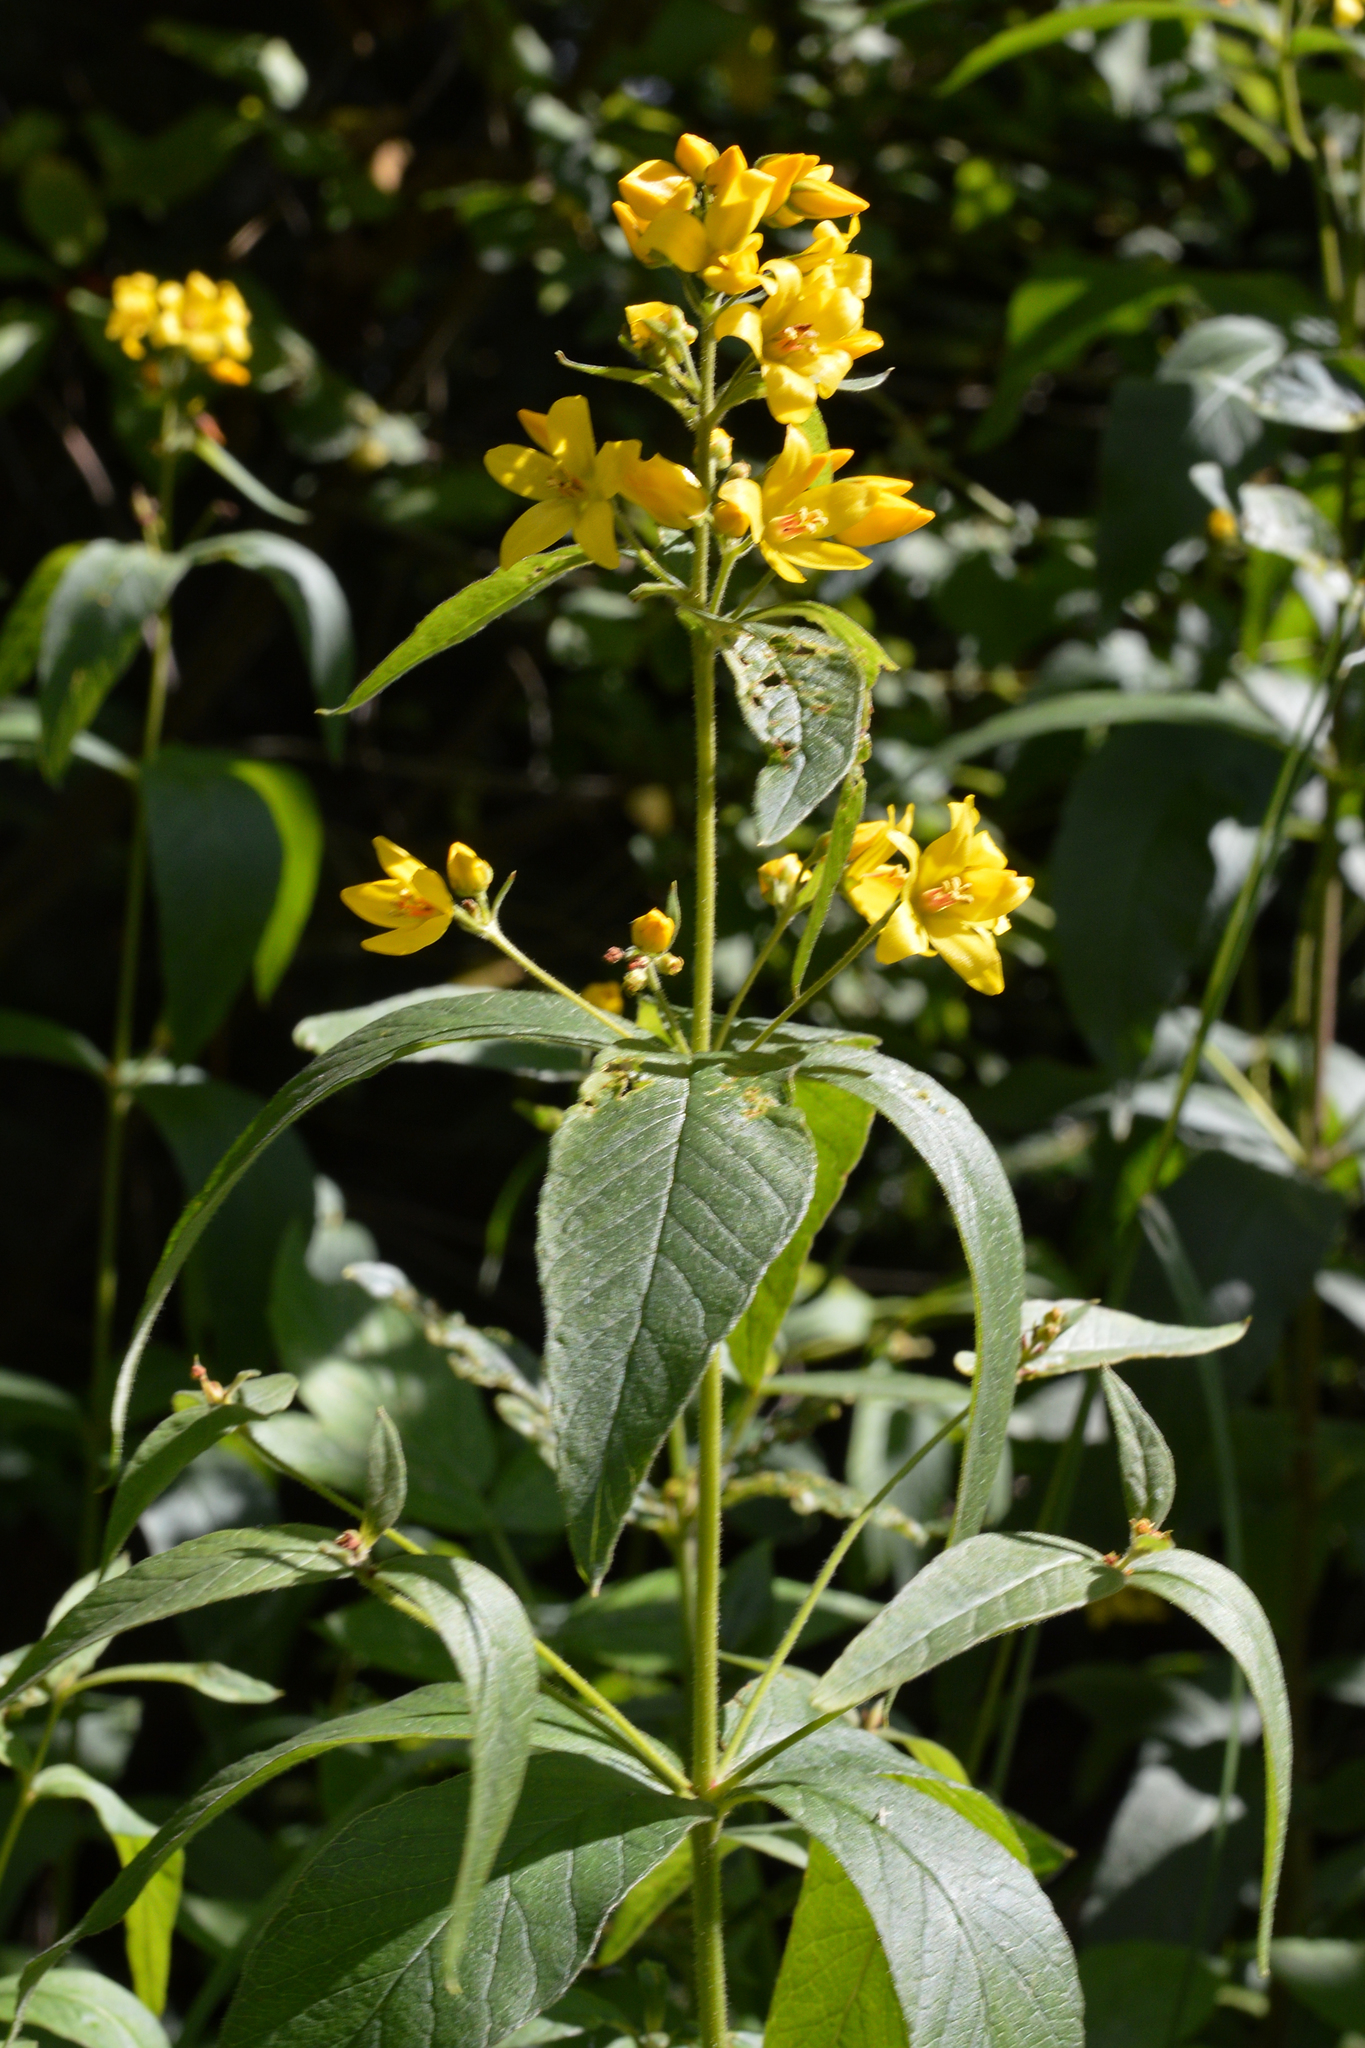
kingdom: Plantae
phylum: Tracheophyta
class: Magnoliopsida
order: Ericales
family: Primulaceae
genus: Lysimachia
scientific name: Lysimachia vulgaris
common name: Yellow loosestrife
